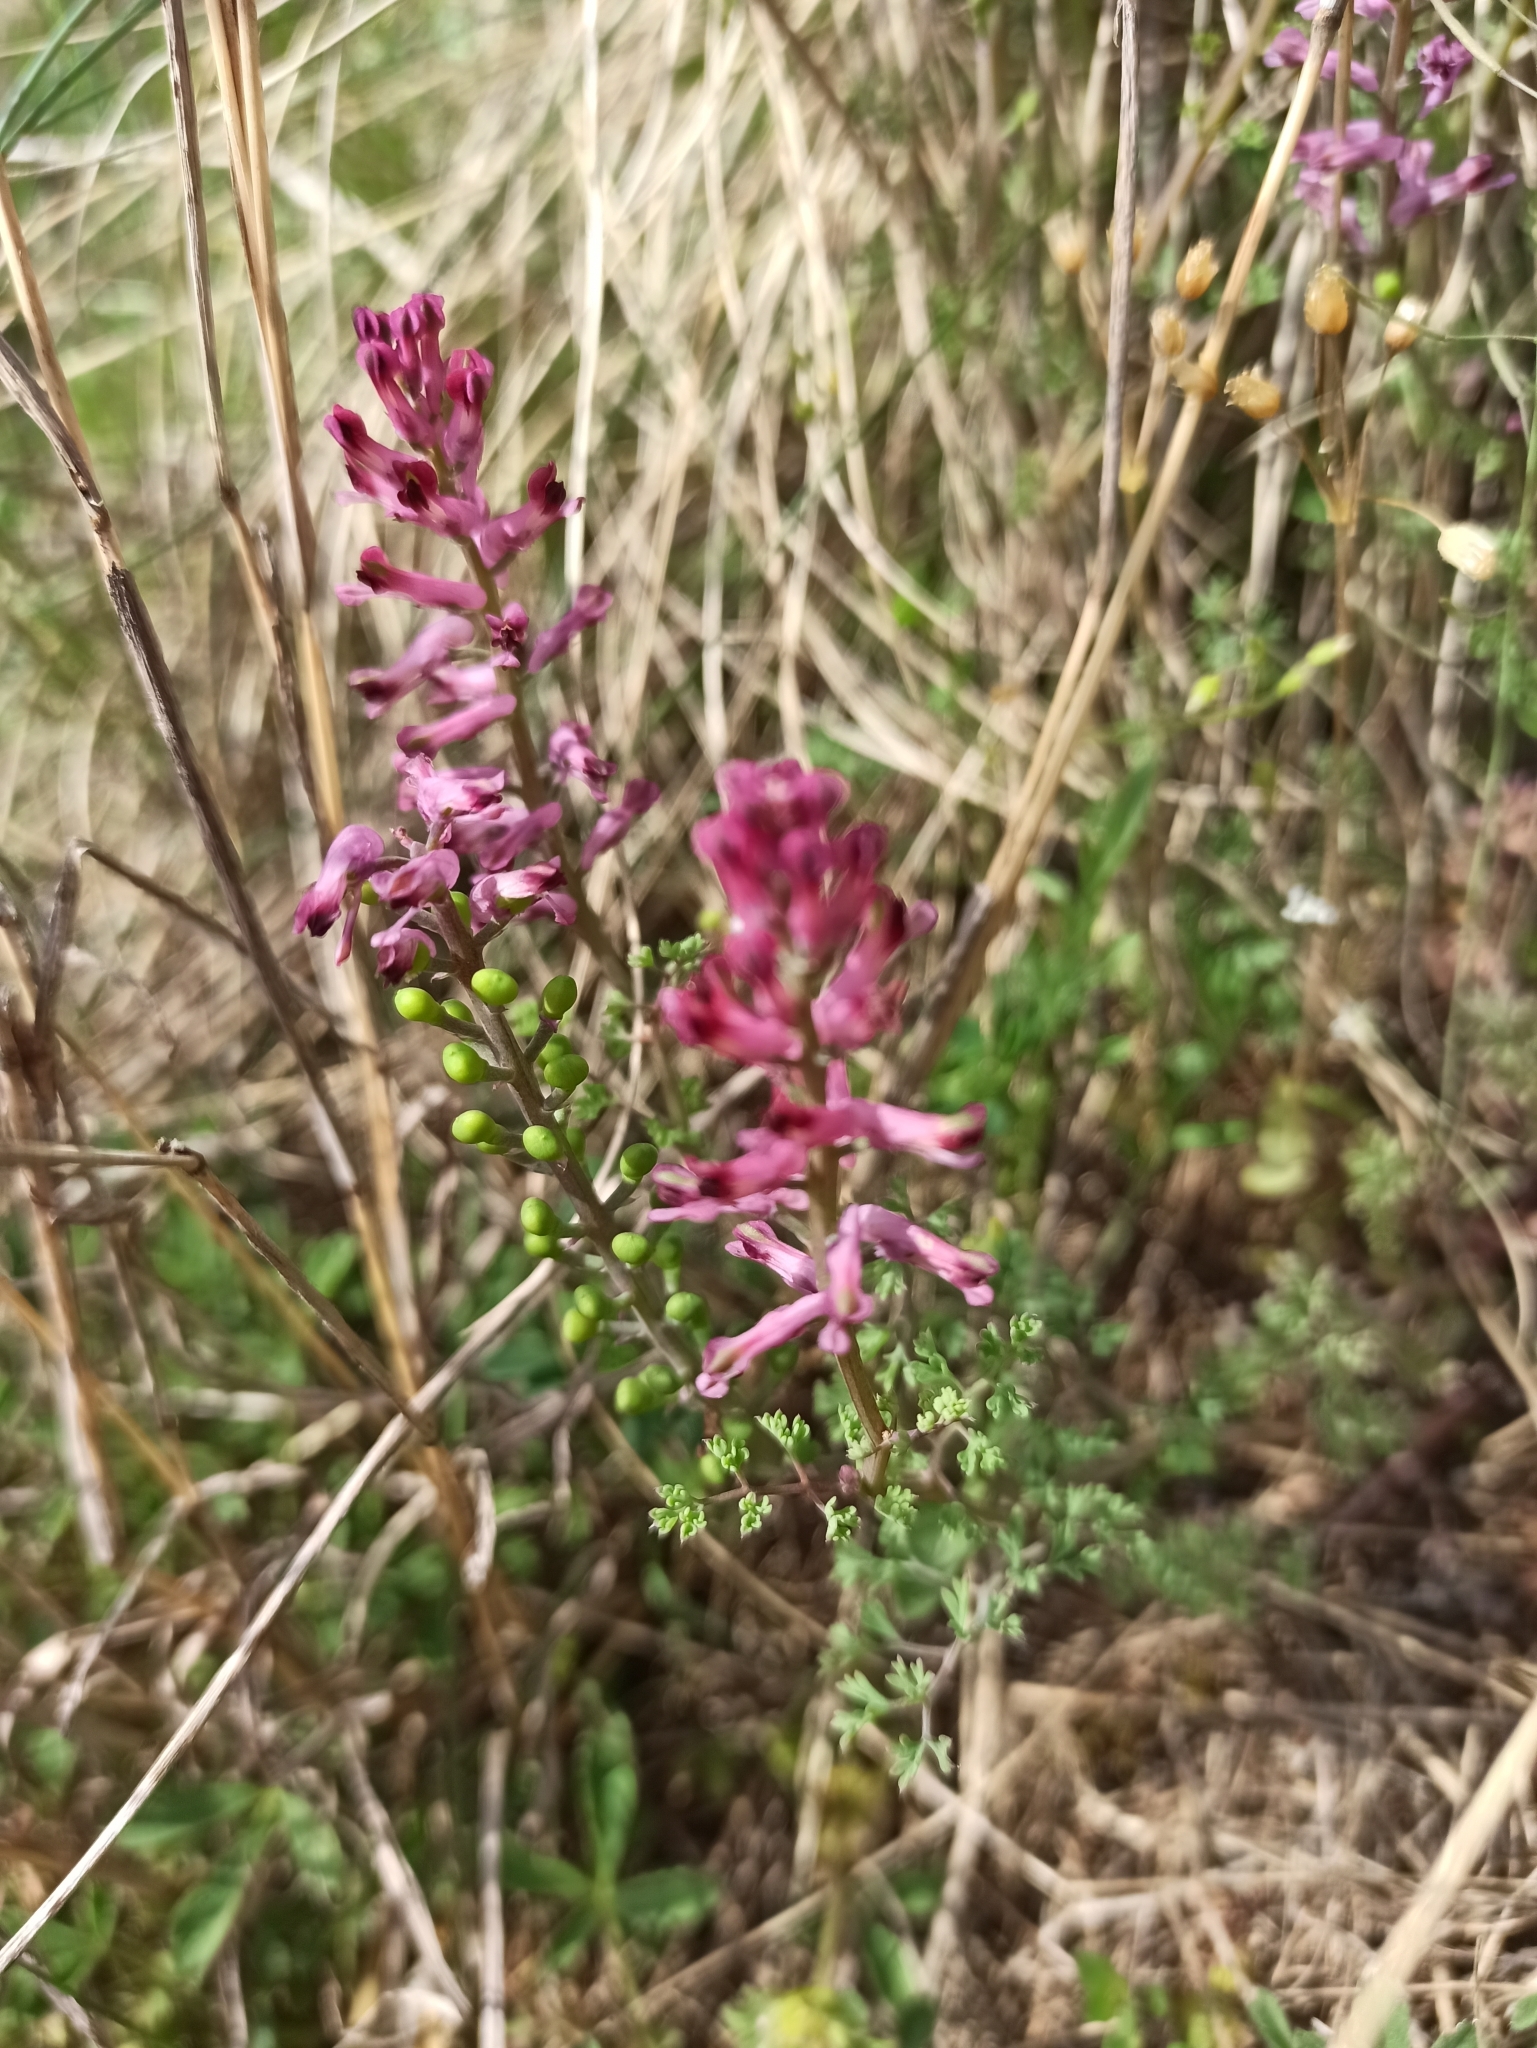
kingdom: Plantae
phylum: Tracheophyta
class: Magnoliopsida
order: Ranunculales
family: Papaveraceae
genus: Fumaria
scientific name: Fumaria officinalis
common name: Common fumitory
